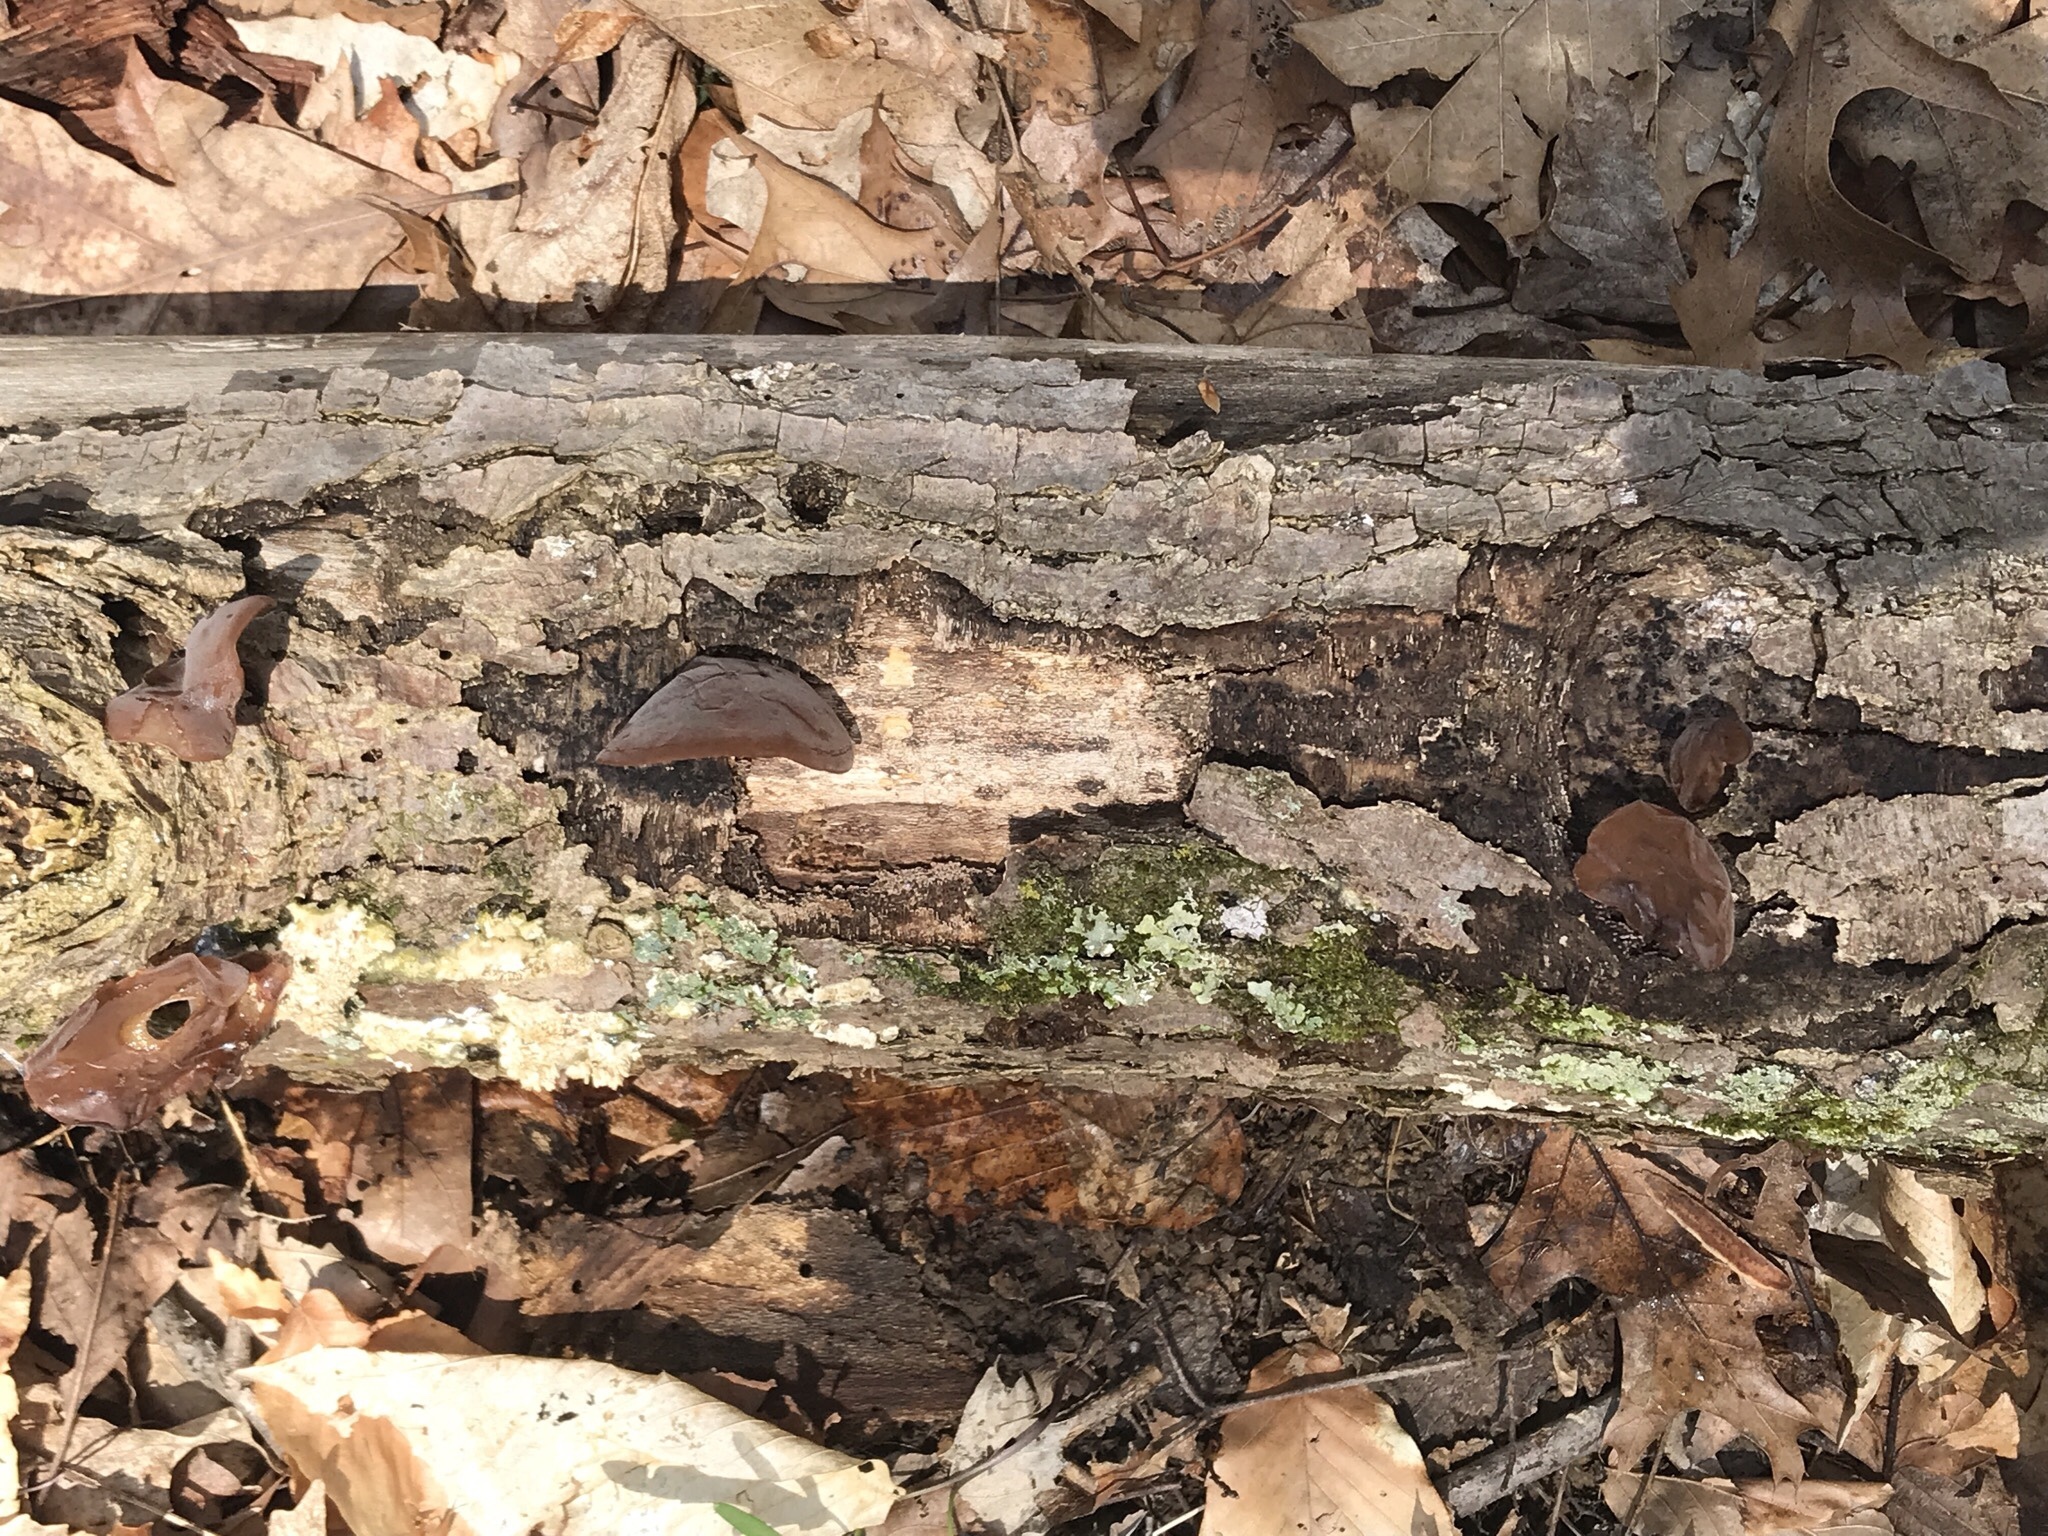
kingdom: Fungi
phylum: Basidiomycota
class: Agaricomycetes
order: Auriculariales
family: Auriculariaceae
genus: Auricularia
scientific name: Auricularia angiospermarum
